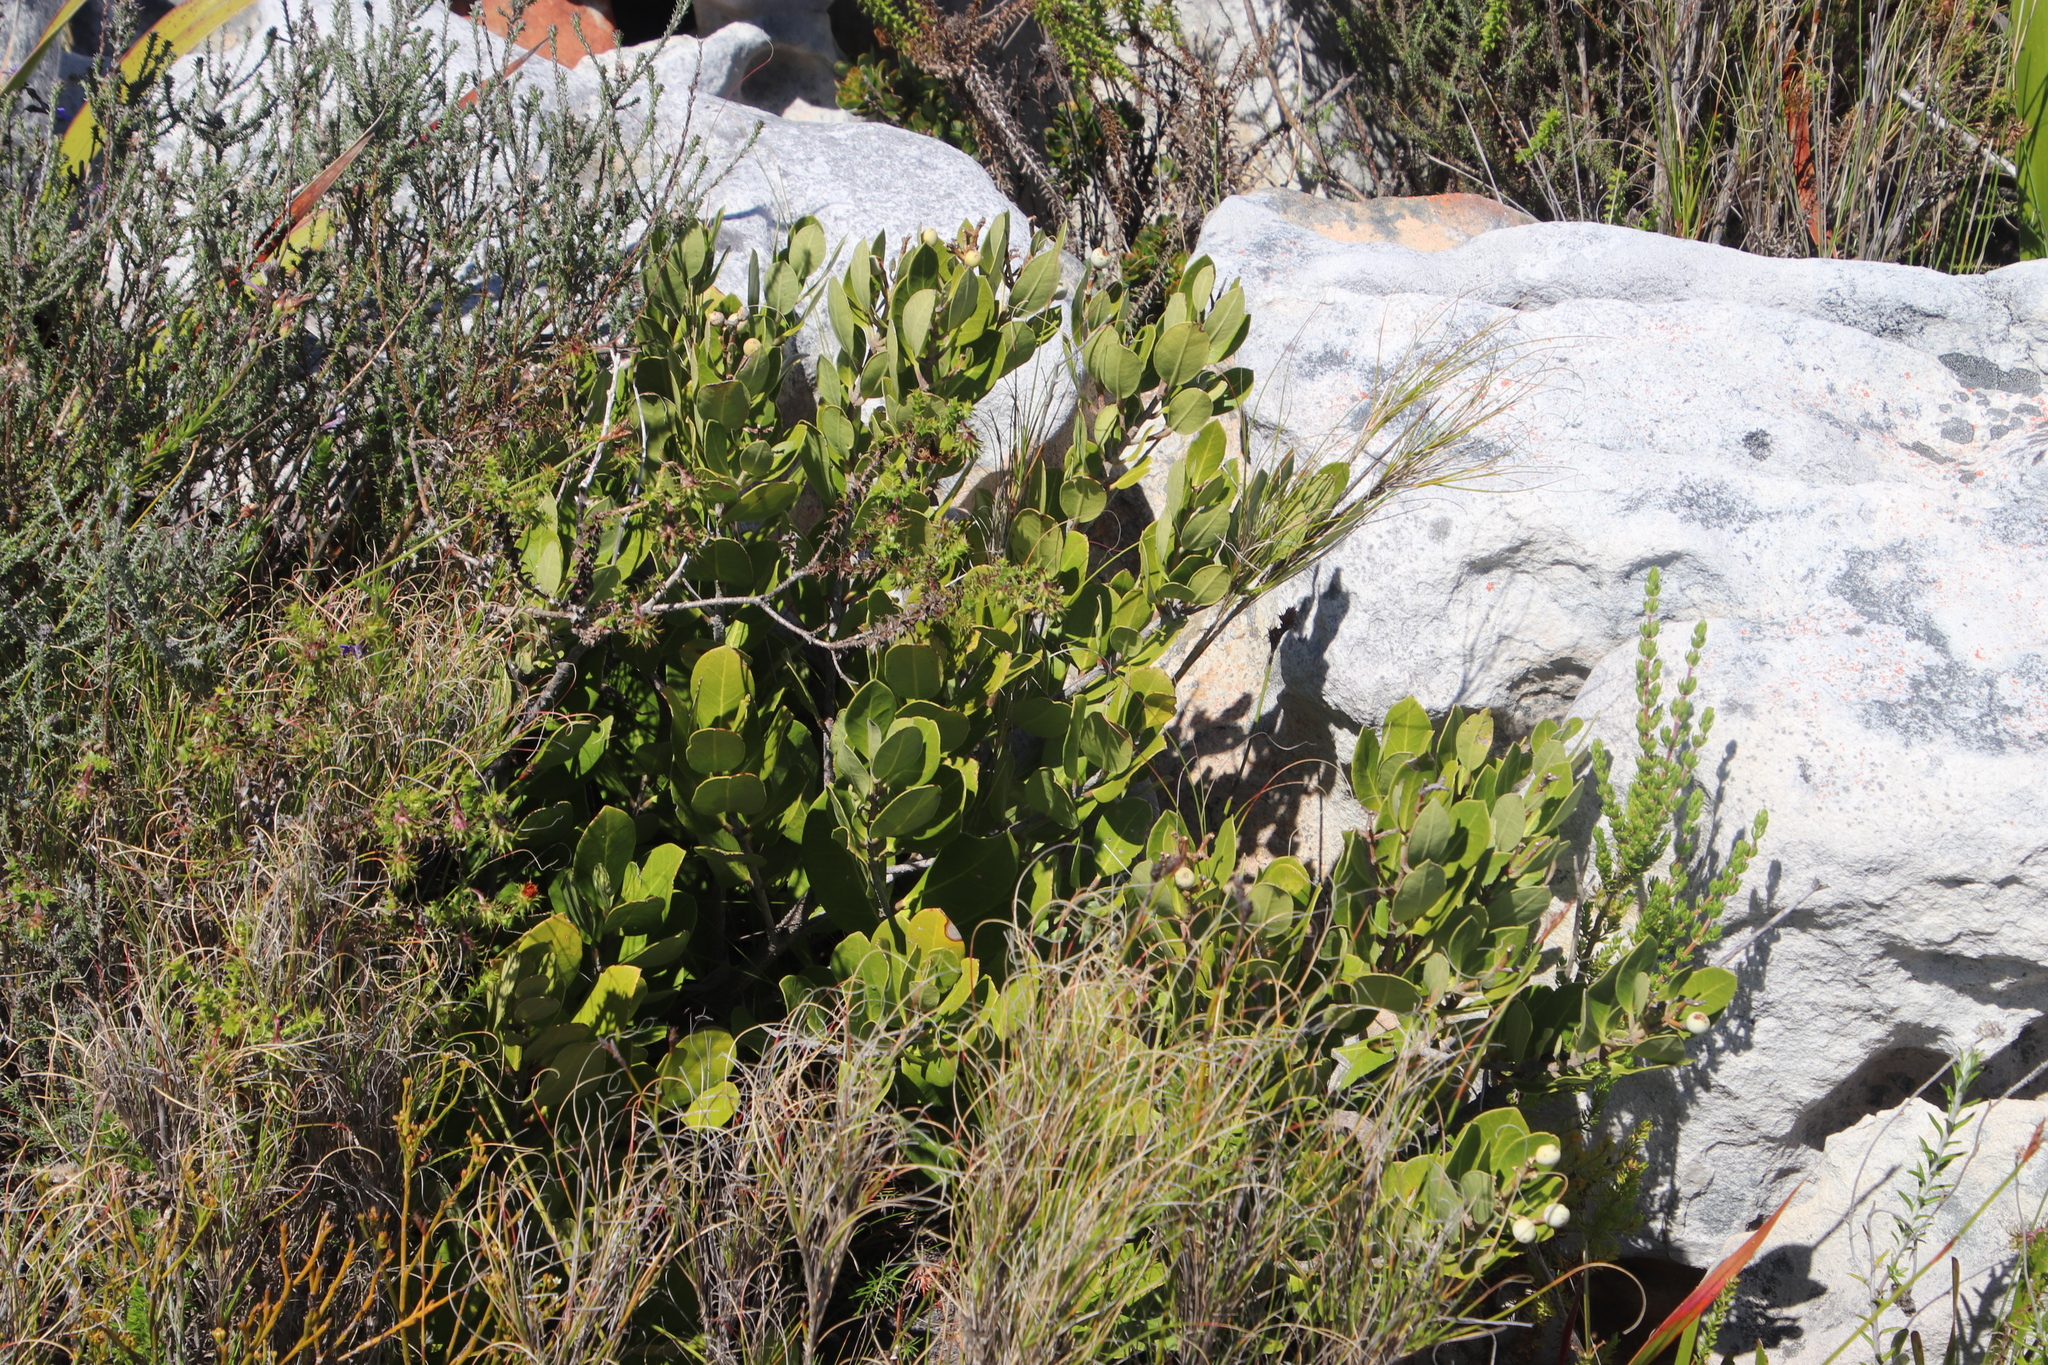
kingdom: Plantae
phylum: Tracheophyta
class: Magnoliopsida
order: Lamiales
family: Oleaceae
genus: Olea
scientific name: Olea capensis
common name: Black ironwood
